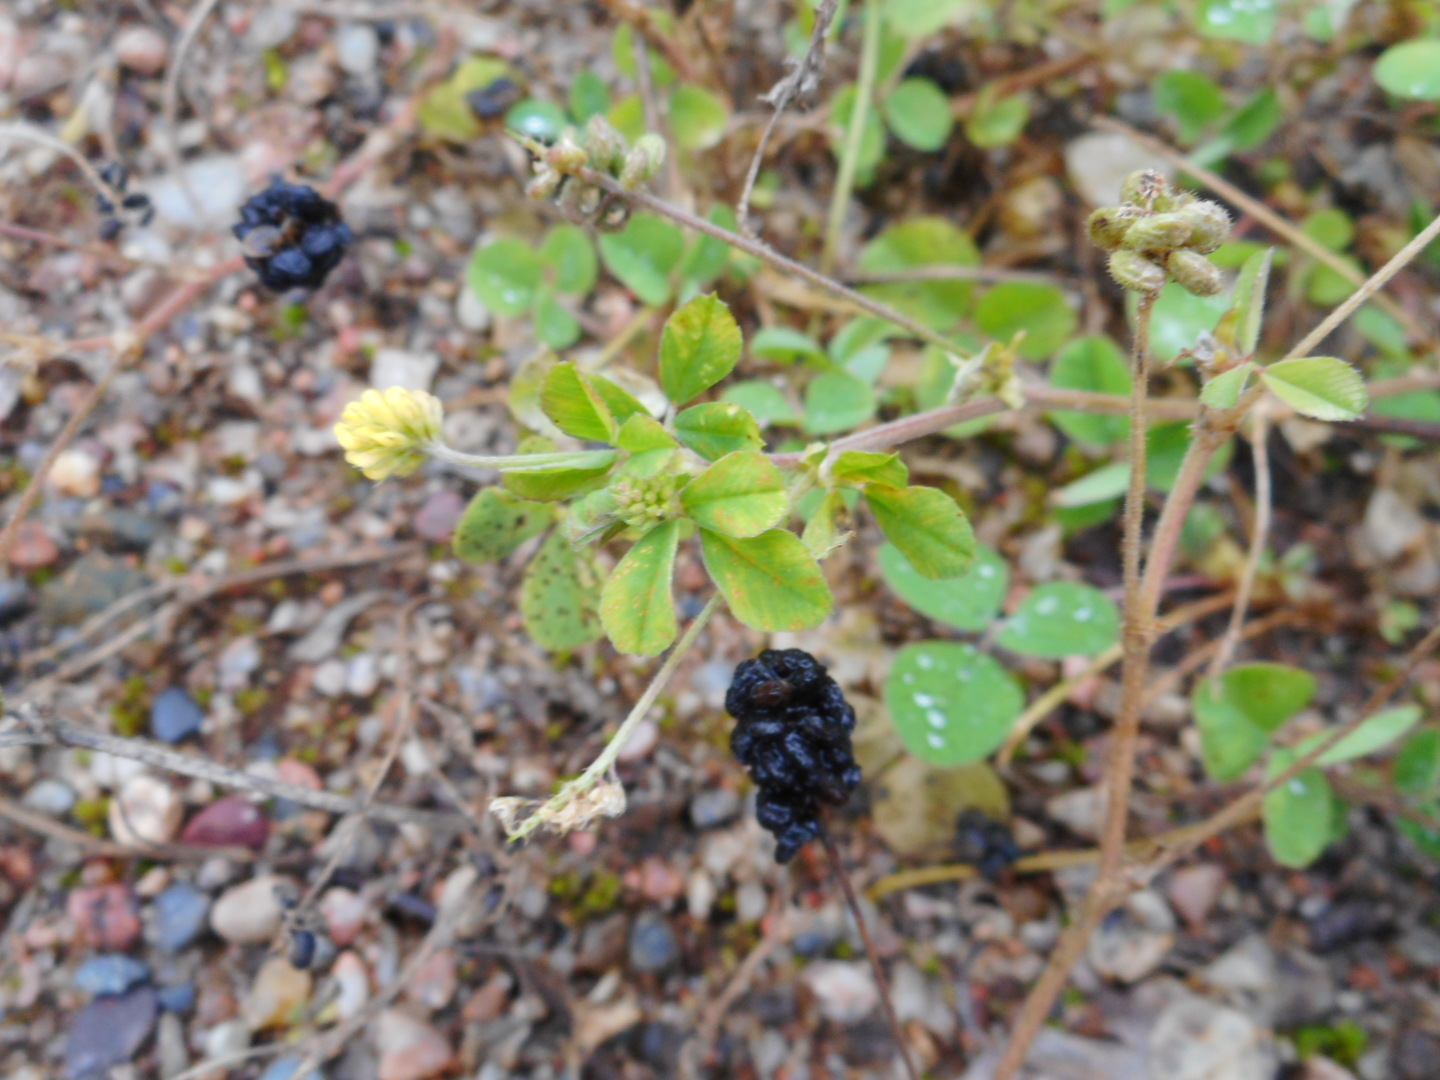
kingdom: Plantae
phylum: Tracheophyta
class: Magnoliopsida
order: Fabales
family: Fabaceae
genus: Medicago
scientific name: Medicago lupulina
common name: Black medick
